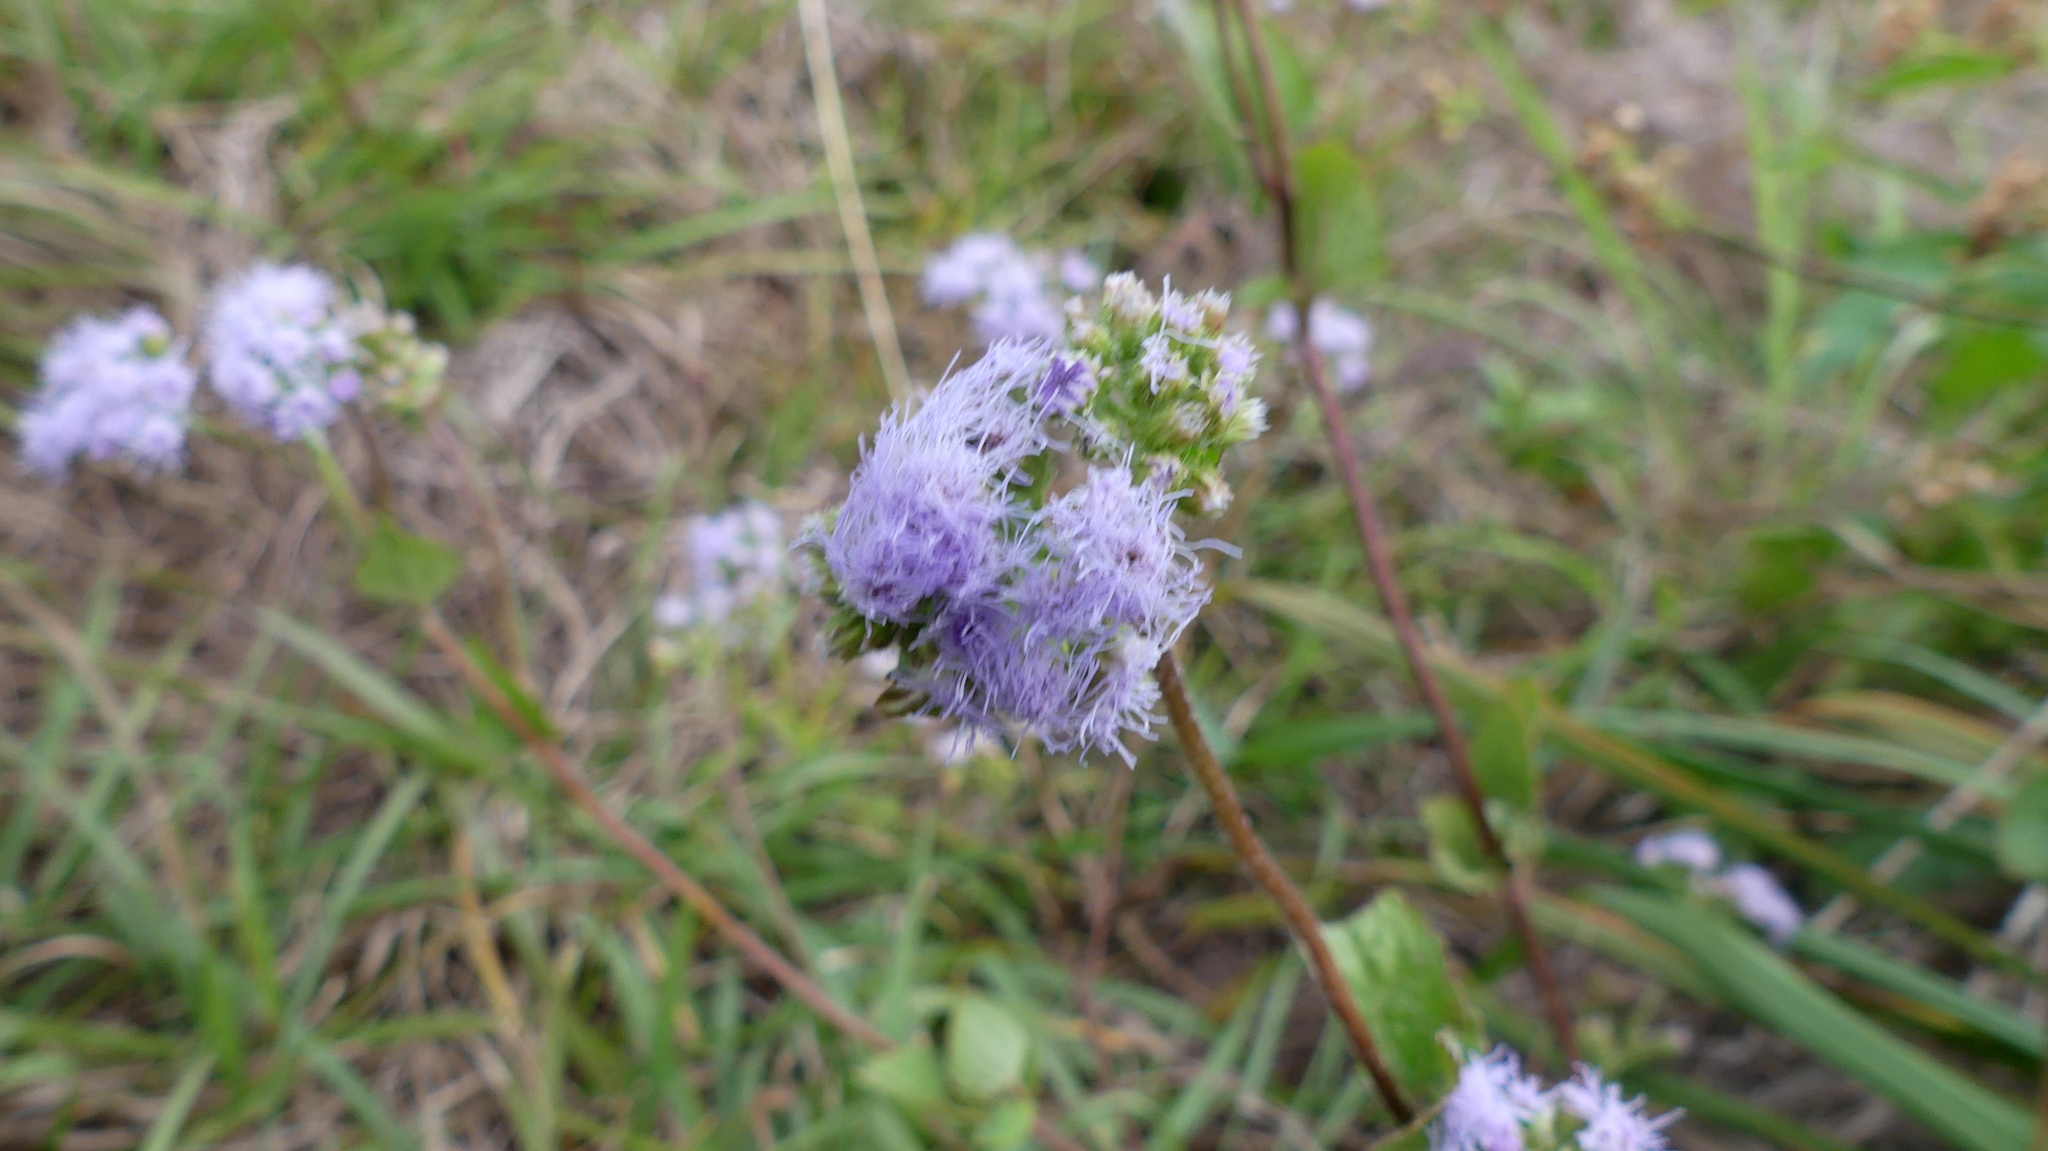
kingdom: Plantae
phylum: Tracheophyta
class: Magnoliopsida
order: Asterales
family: Asteraceae
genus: Conoclinium
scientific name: Conoclinium coelestinum
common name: Blue mistflower
